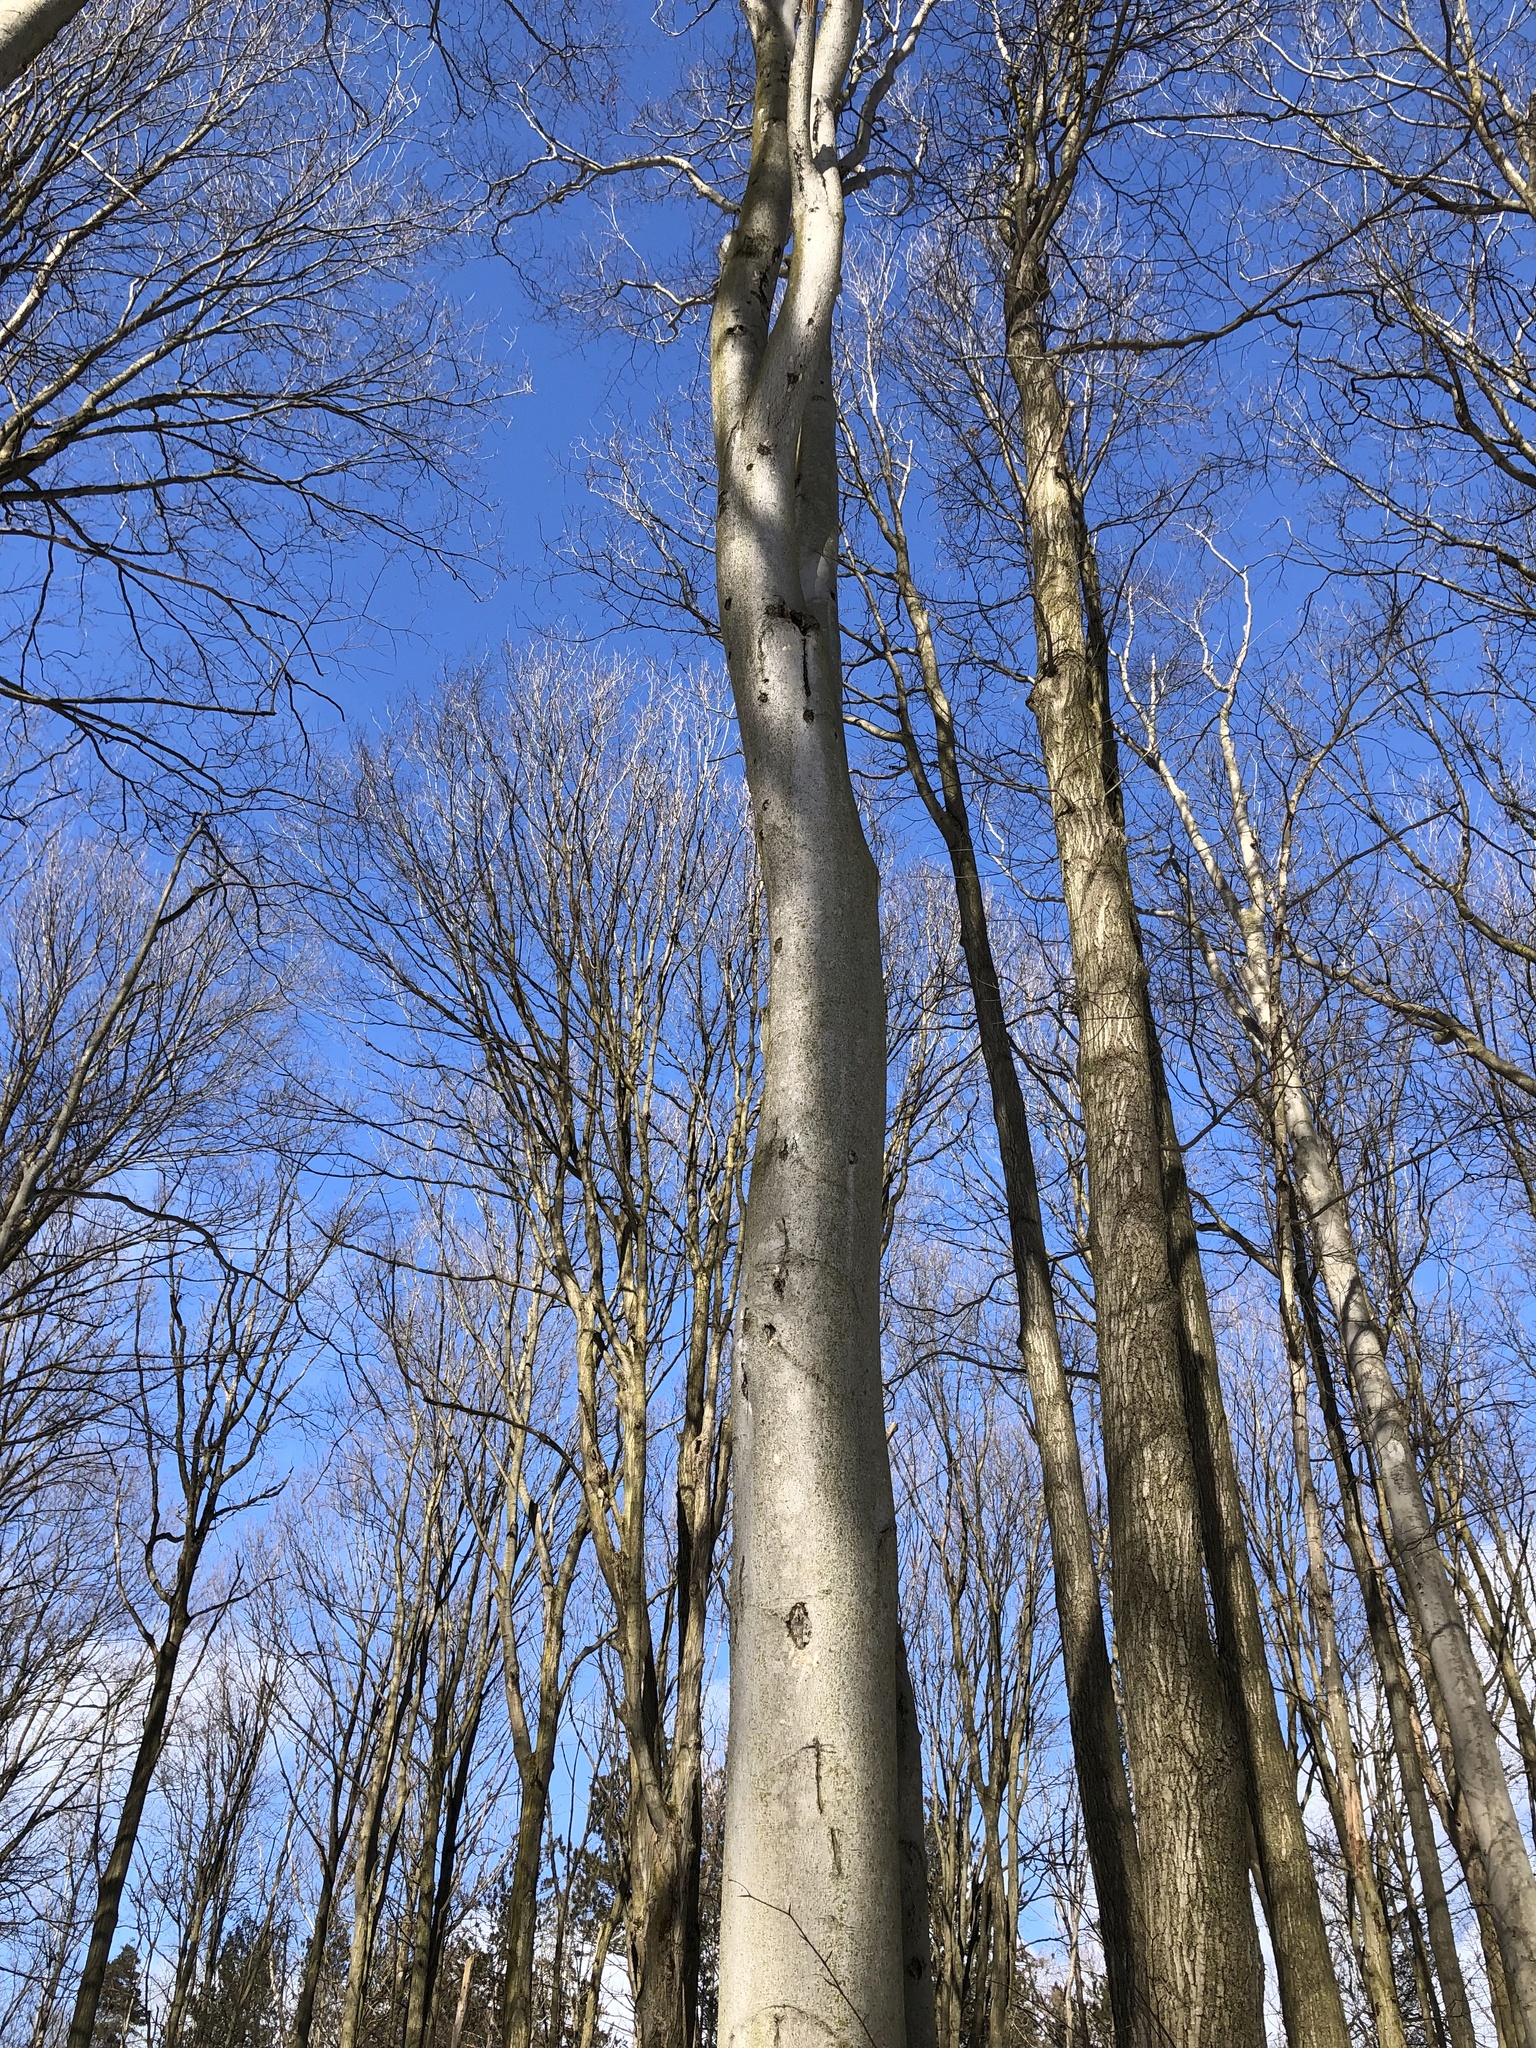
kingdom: Plantae
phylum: Tracheophyta
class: Magnoliopsida
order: Fagales
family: Fagaceae
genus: Fagus
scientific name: Fagus grandifolia
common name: American beech
